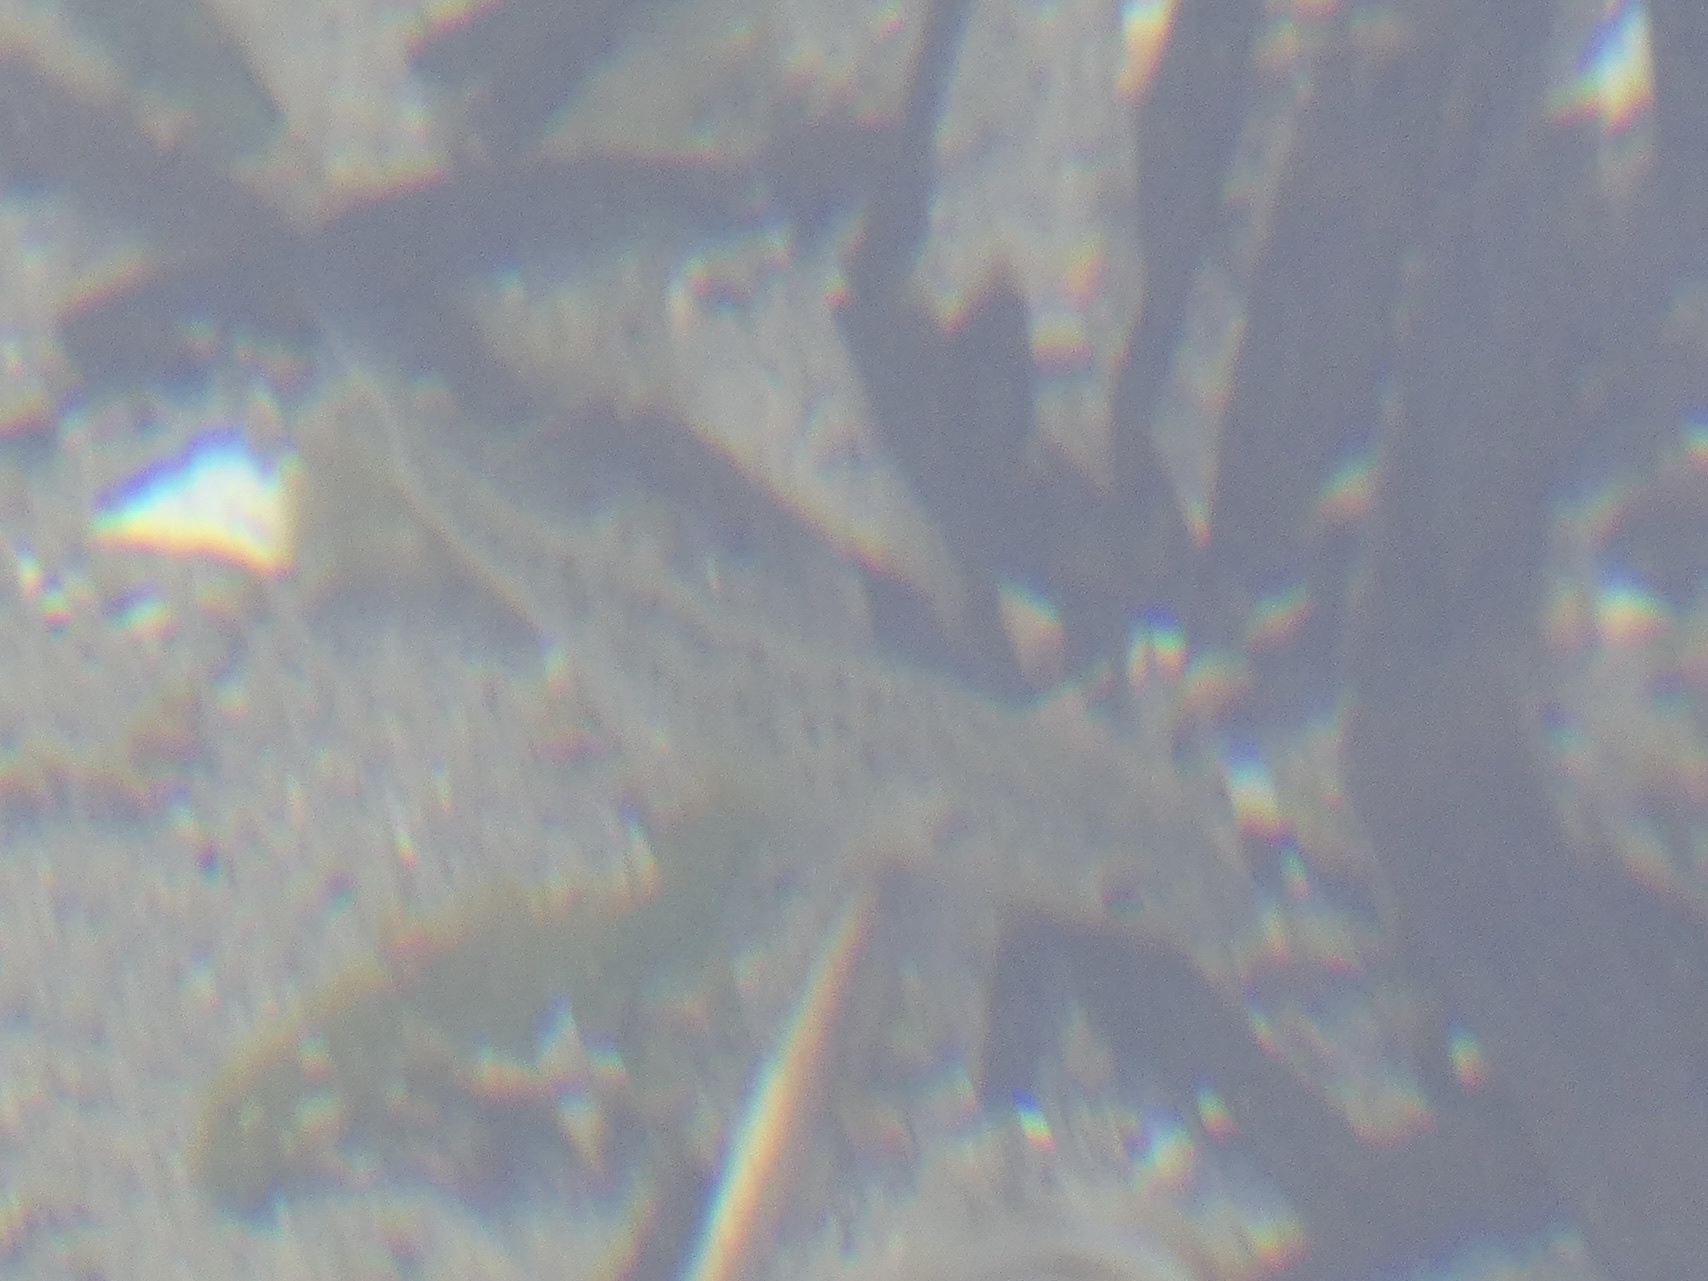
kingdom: Animalia
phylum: Chordata
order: Perciformes
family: Moronidae
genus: Dicentrarchus
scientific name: Dicentrarchus labrax
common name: European seabass
